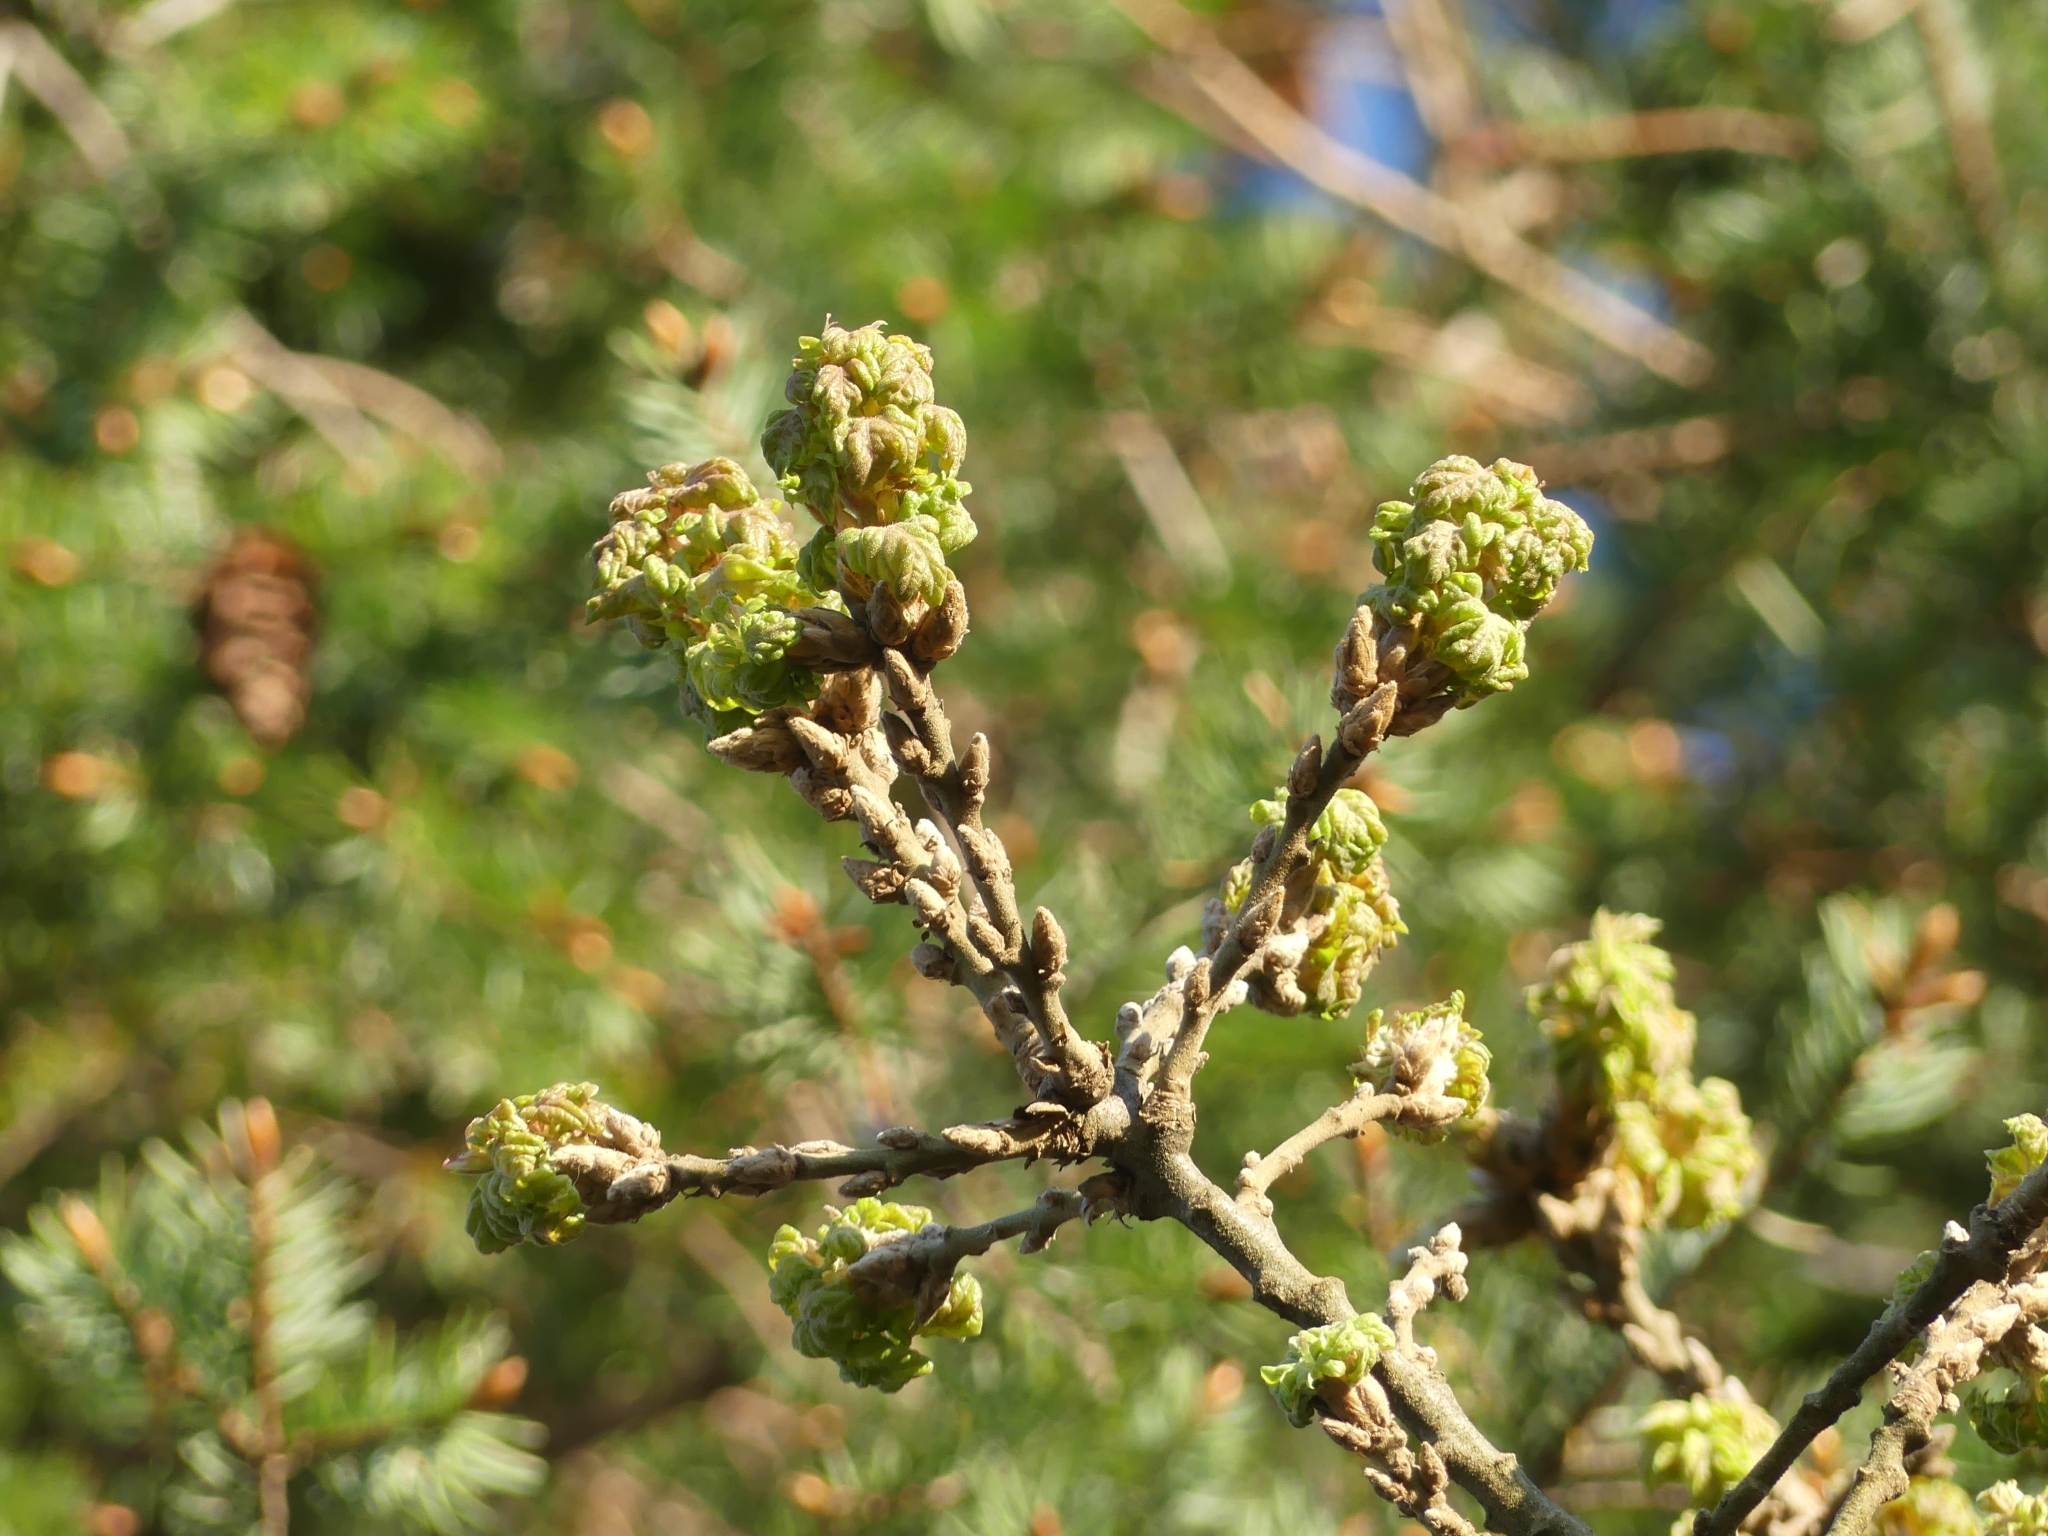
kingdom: Plantae
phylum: Tracheophyta
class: Magnoliopsida
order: Fagales
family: Fagaceae
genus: Quercus
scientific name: Quercus garryana
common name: Garry oak
